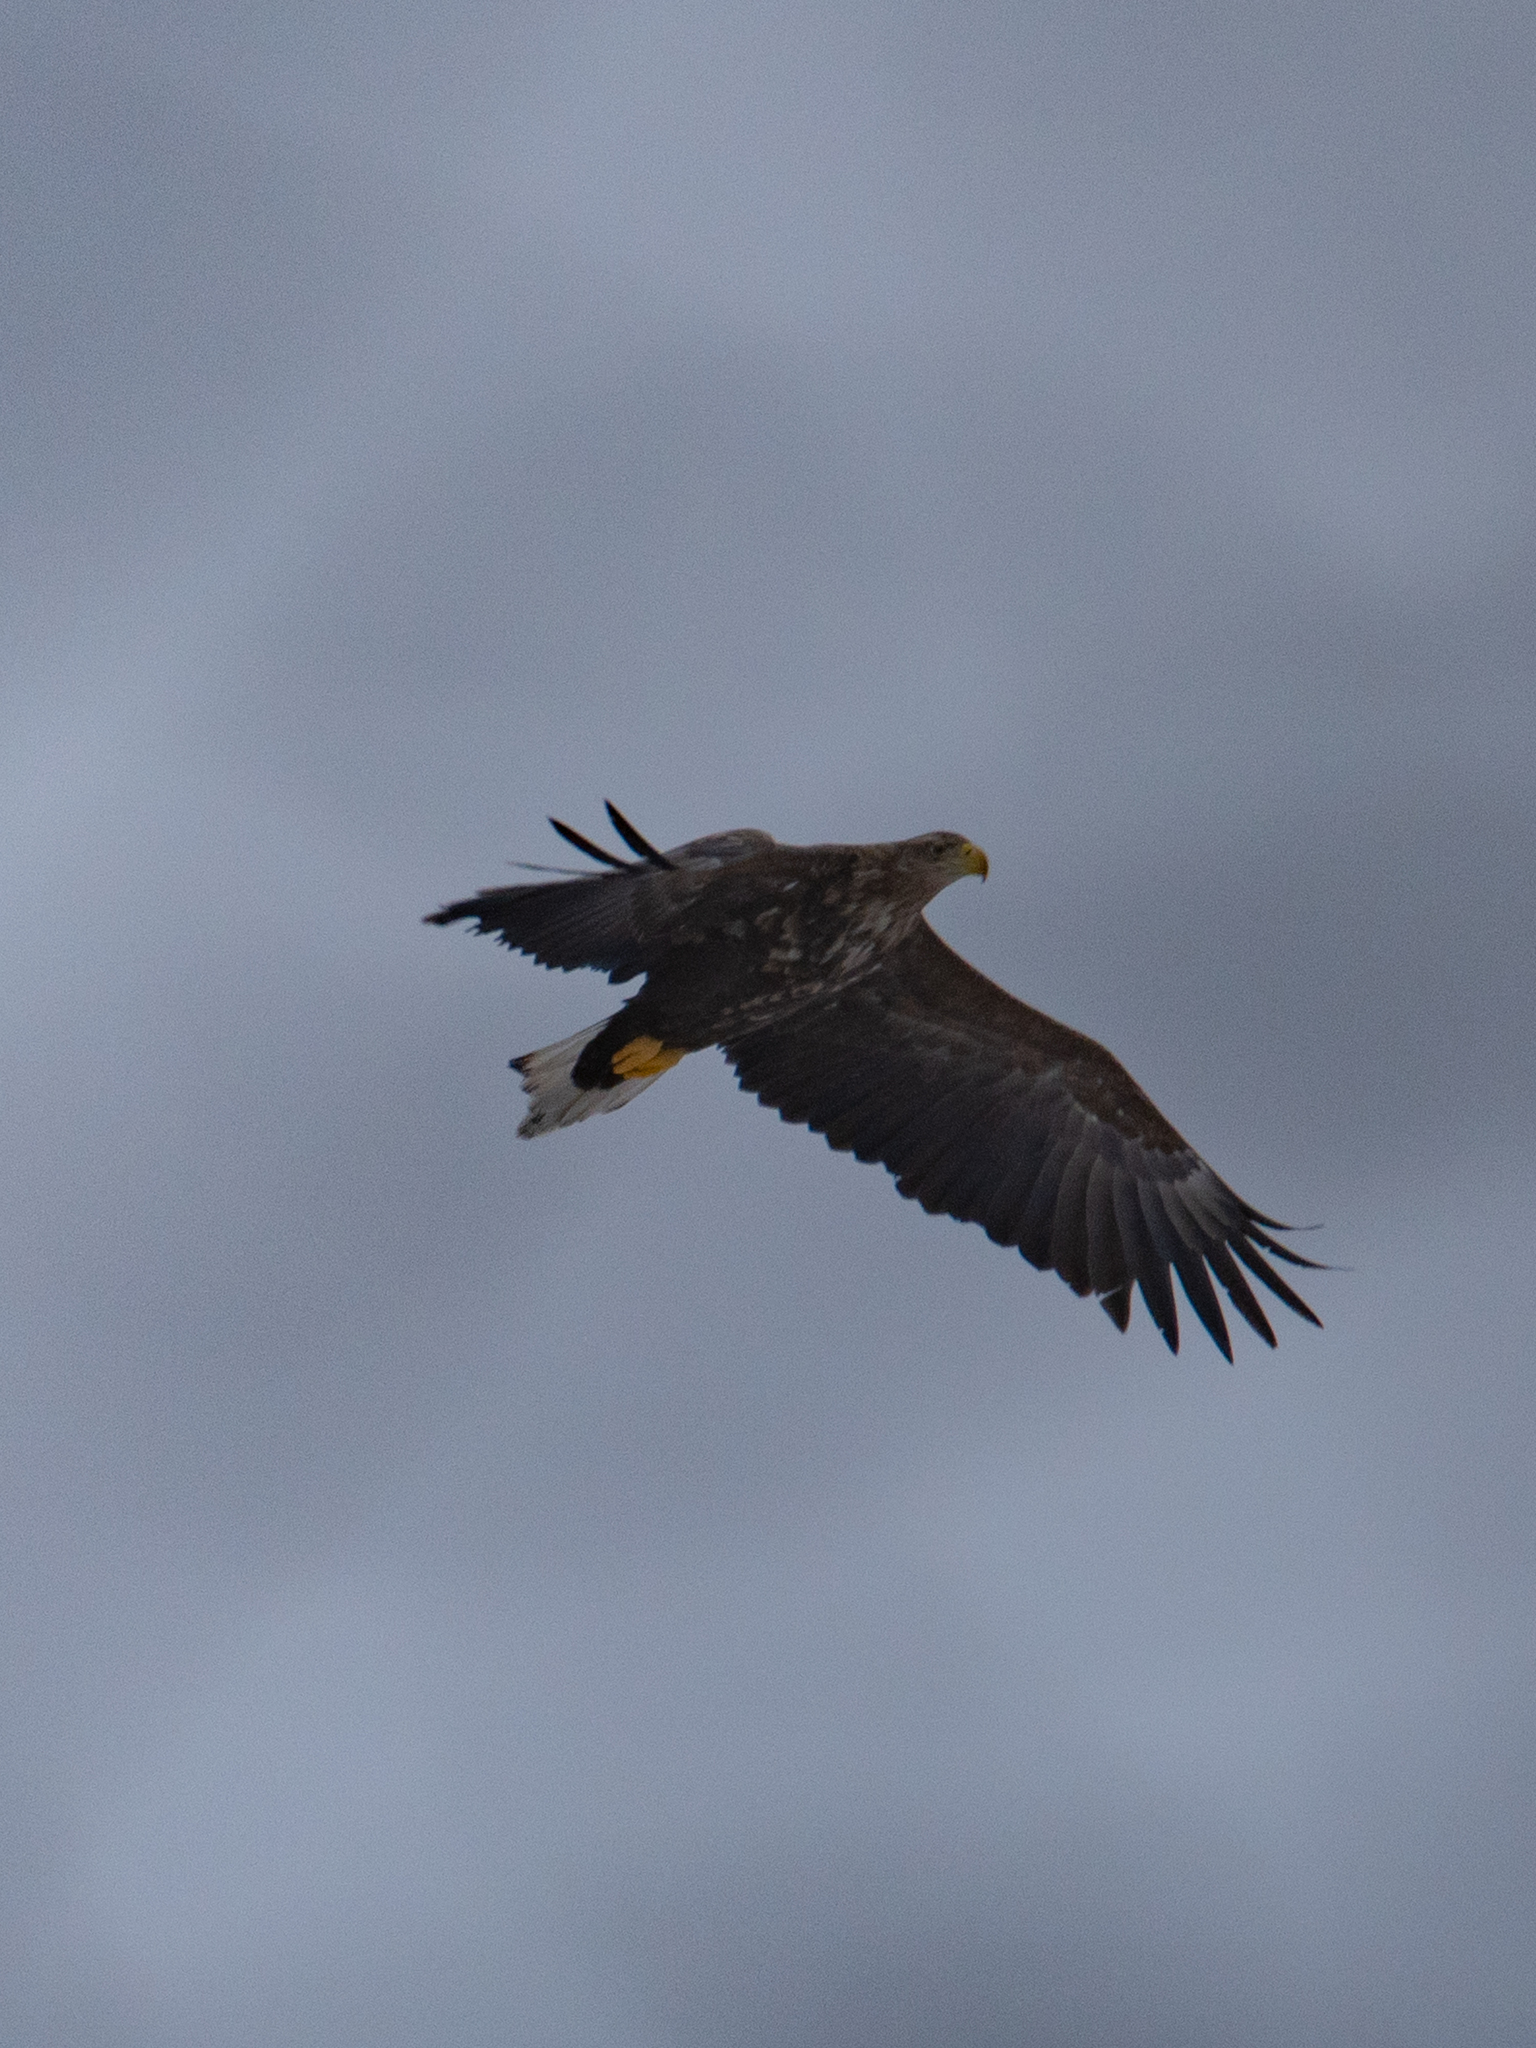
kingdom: Animalia
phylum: Chordata
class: Aves
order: Accipitriformes
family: Accipitridae
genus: Haliaeetus
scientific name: Haliaeetus albicilla
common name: White-tailed eagle
